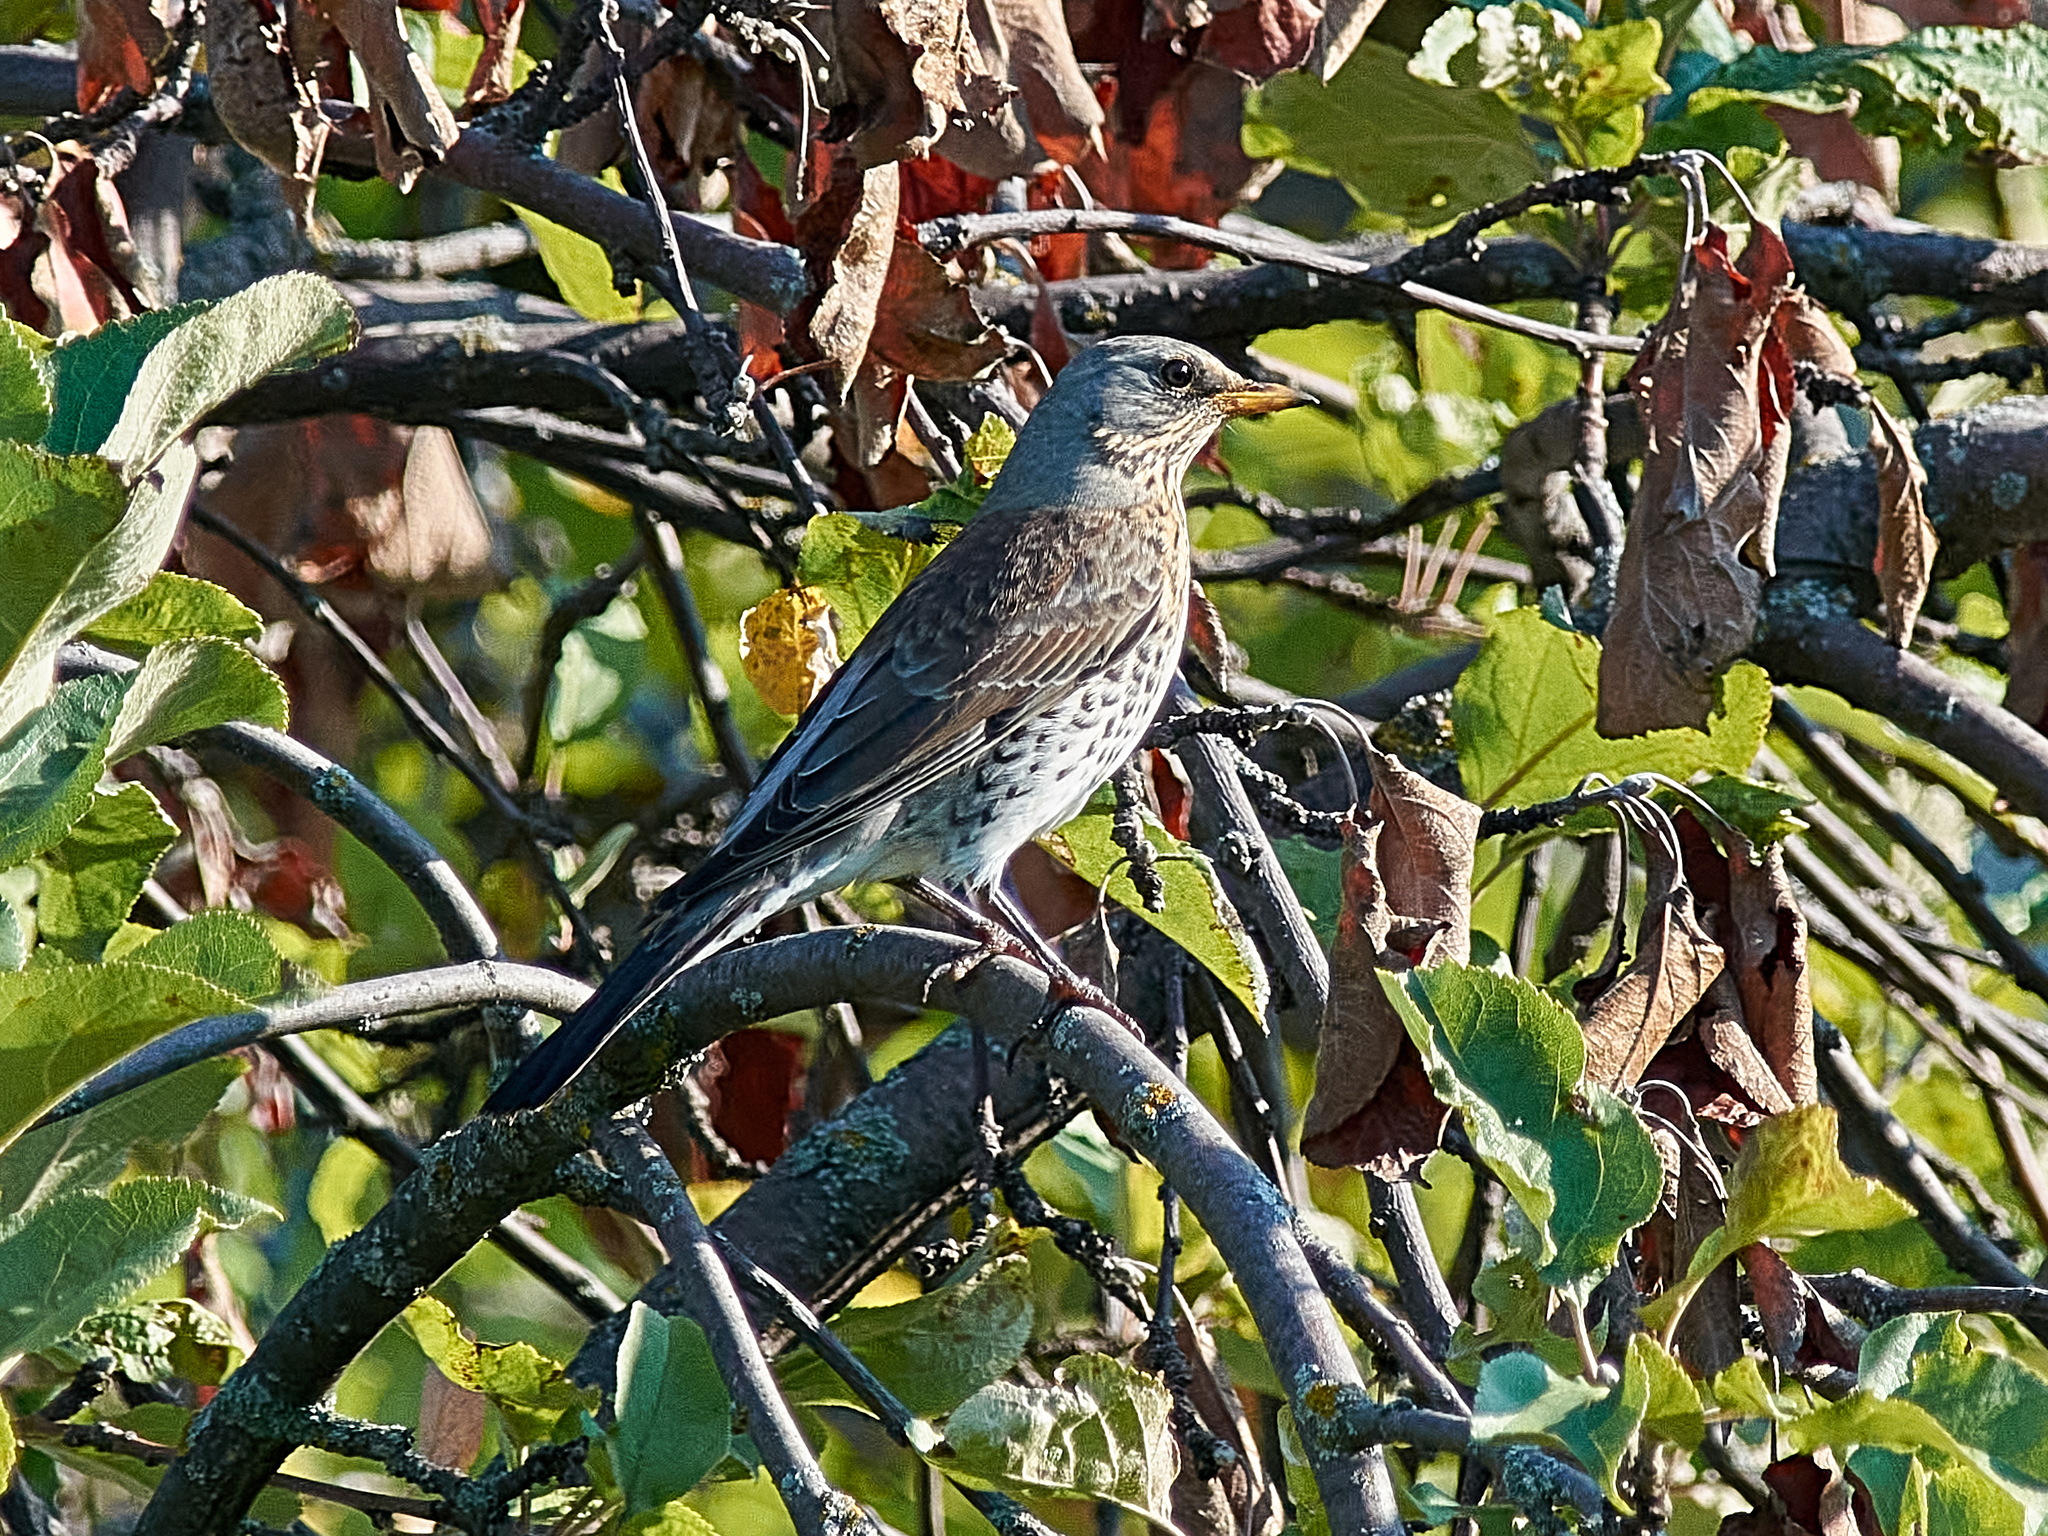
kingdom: Animalia
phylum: Chordata
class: Aves
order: Passeriformes
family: Turdidae
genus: Turdus
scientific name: Turdus pilaris
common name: Fieldfare
